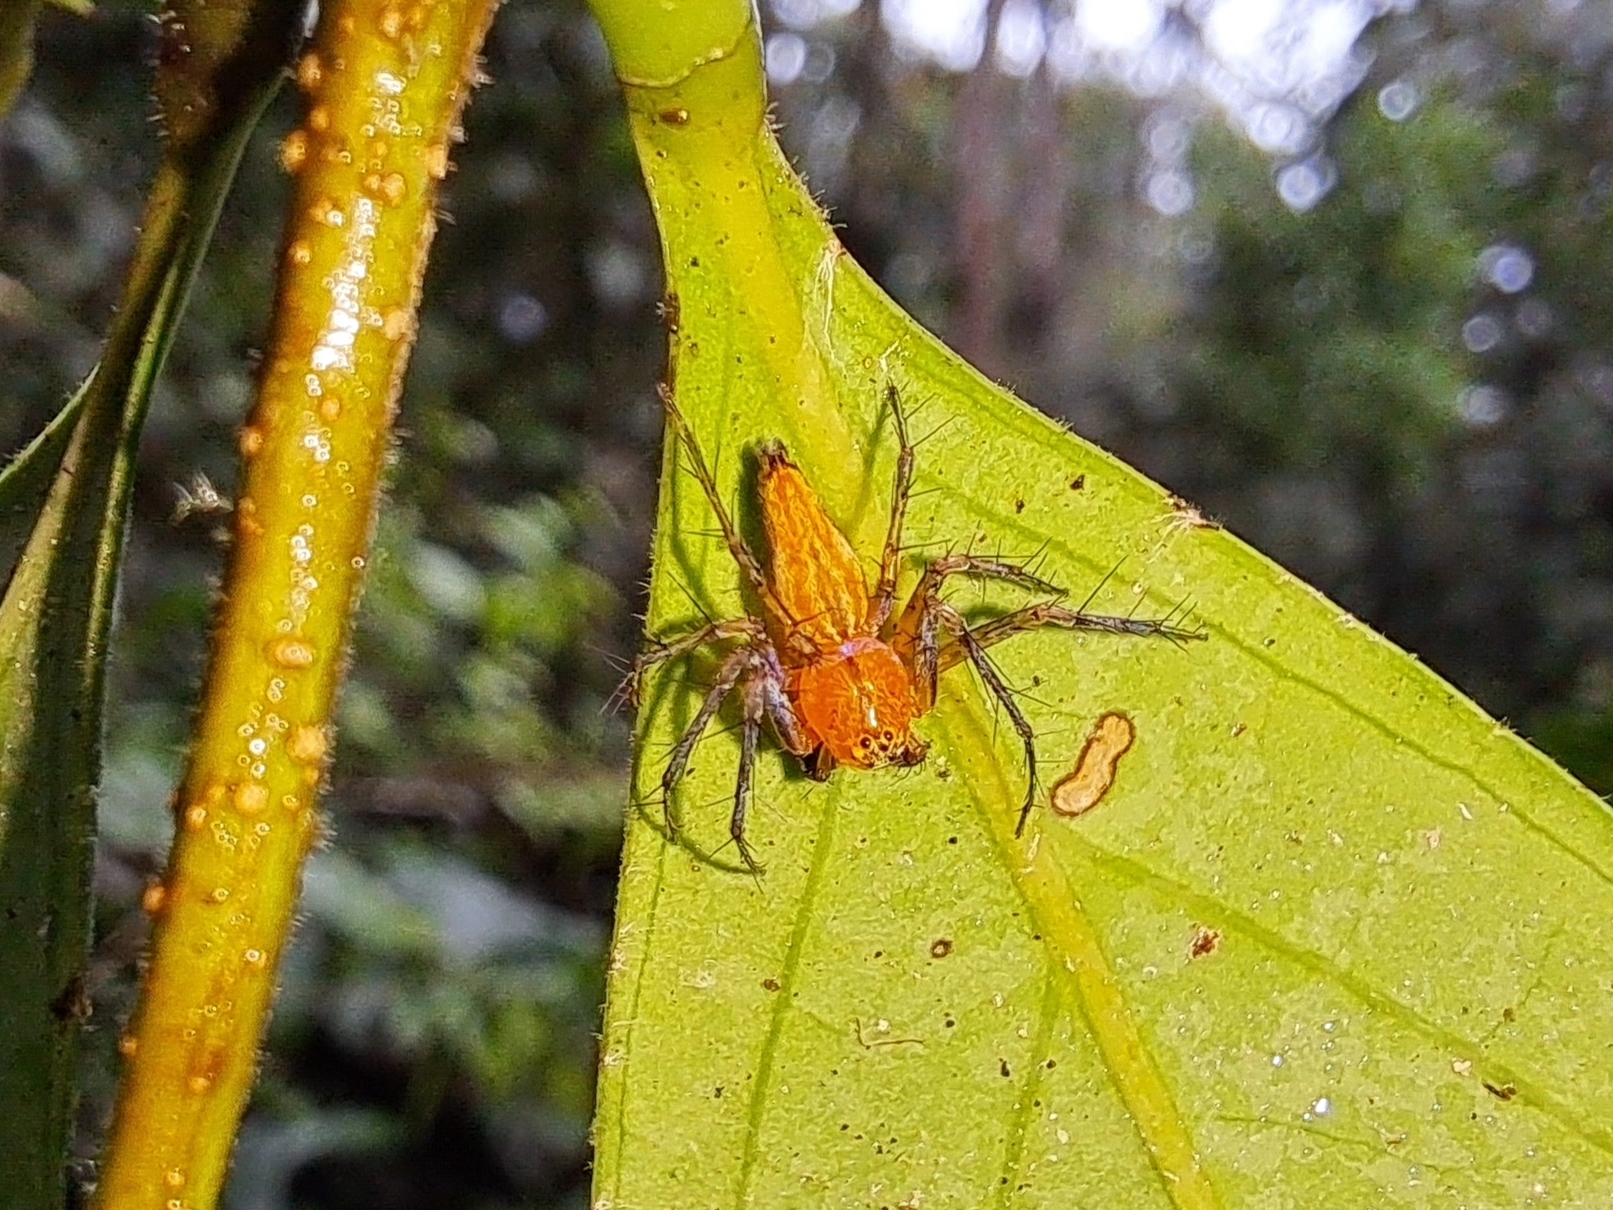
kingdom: Animalia
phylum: Arthropoda
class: Arachnida
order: Araneae
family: Oxyopidae
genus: Oxyopes
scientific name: Oxyopes incertus
